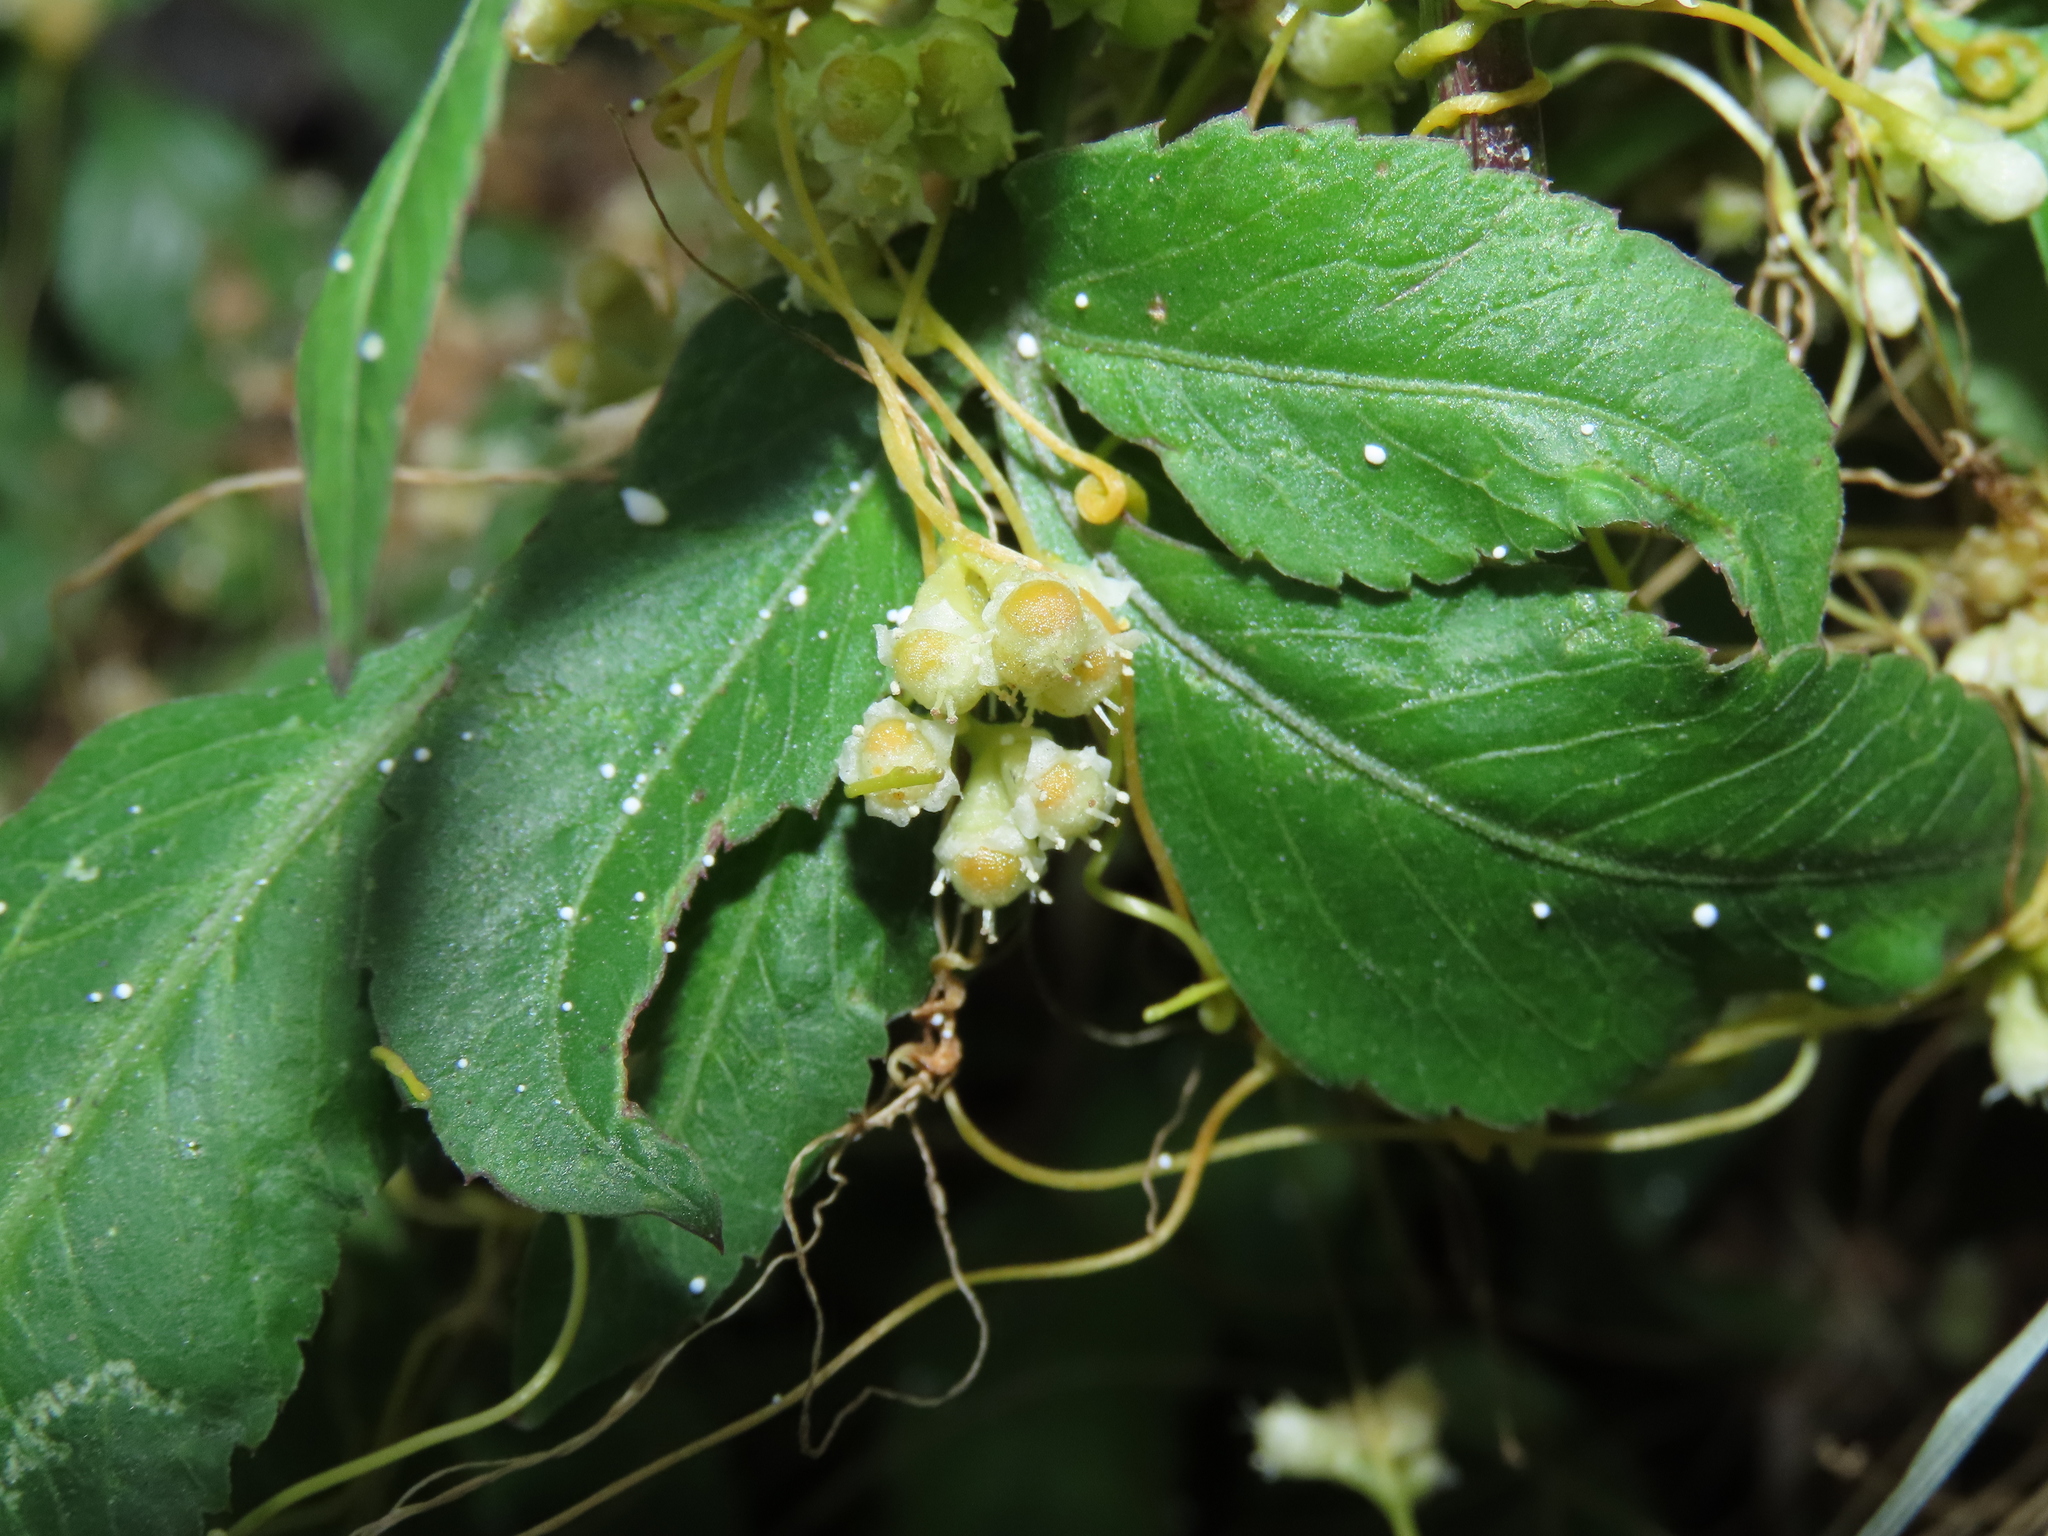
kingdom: Plantae
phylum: Tracheophyta
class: Magnoliopsida
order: Solanales
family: Convolvulaceae
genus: Cuscuta
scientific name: Cuscuta campestris
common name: Yellow dodder
